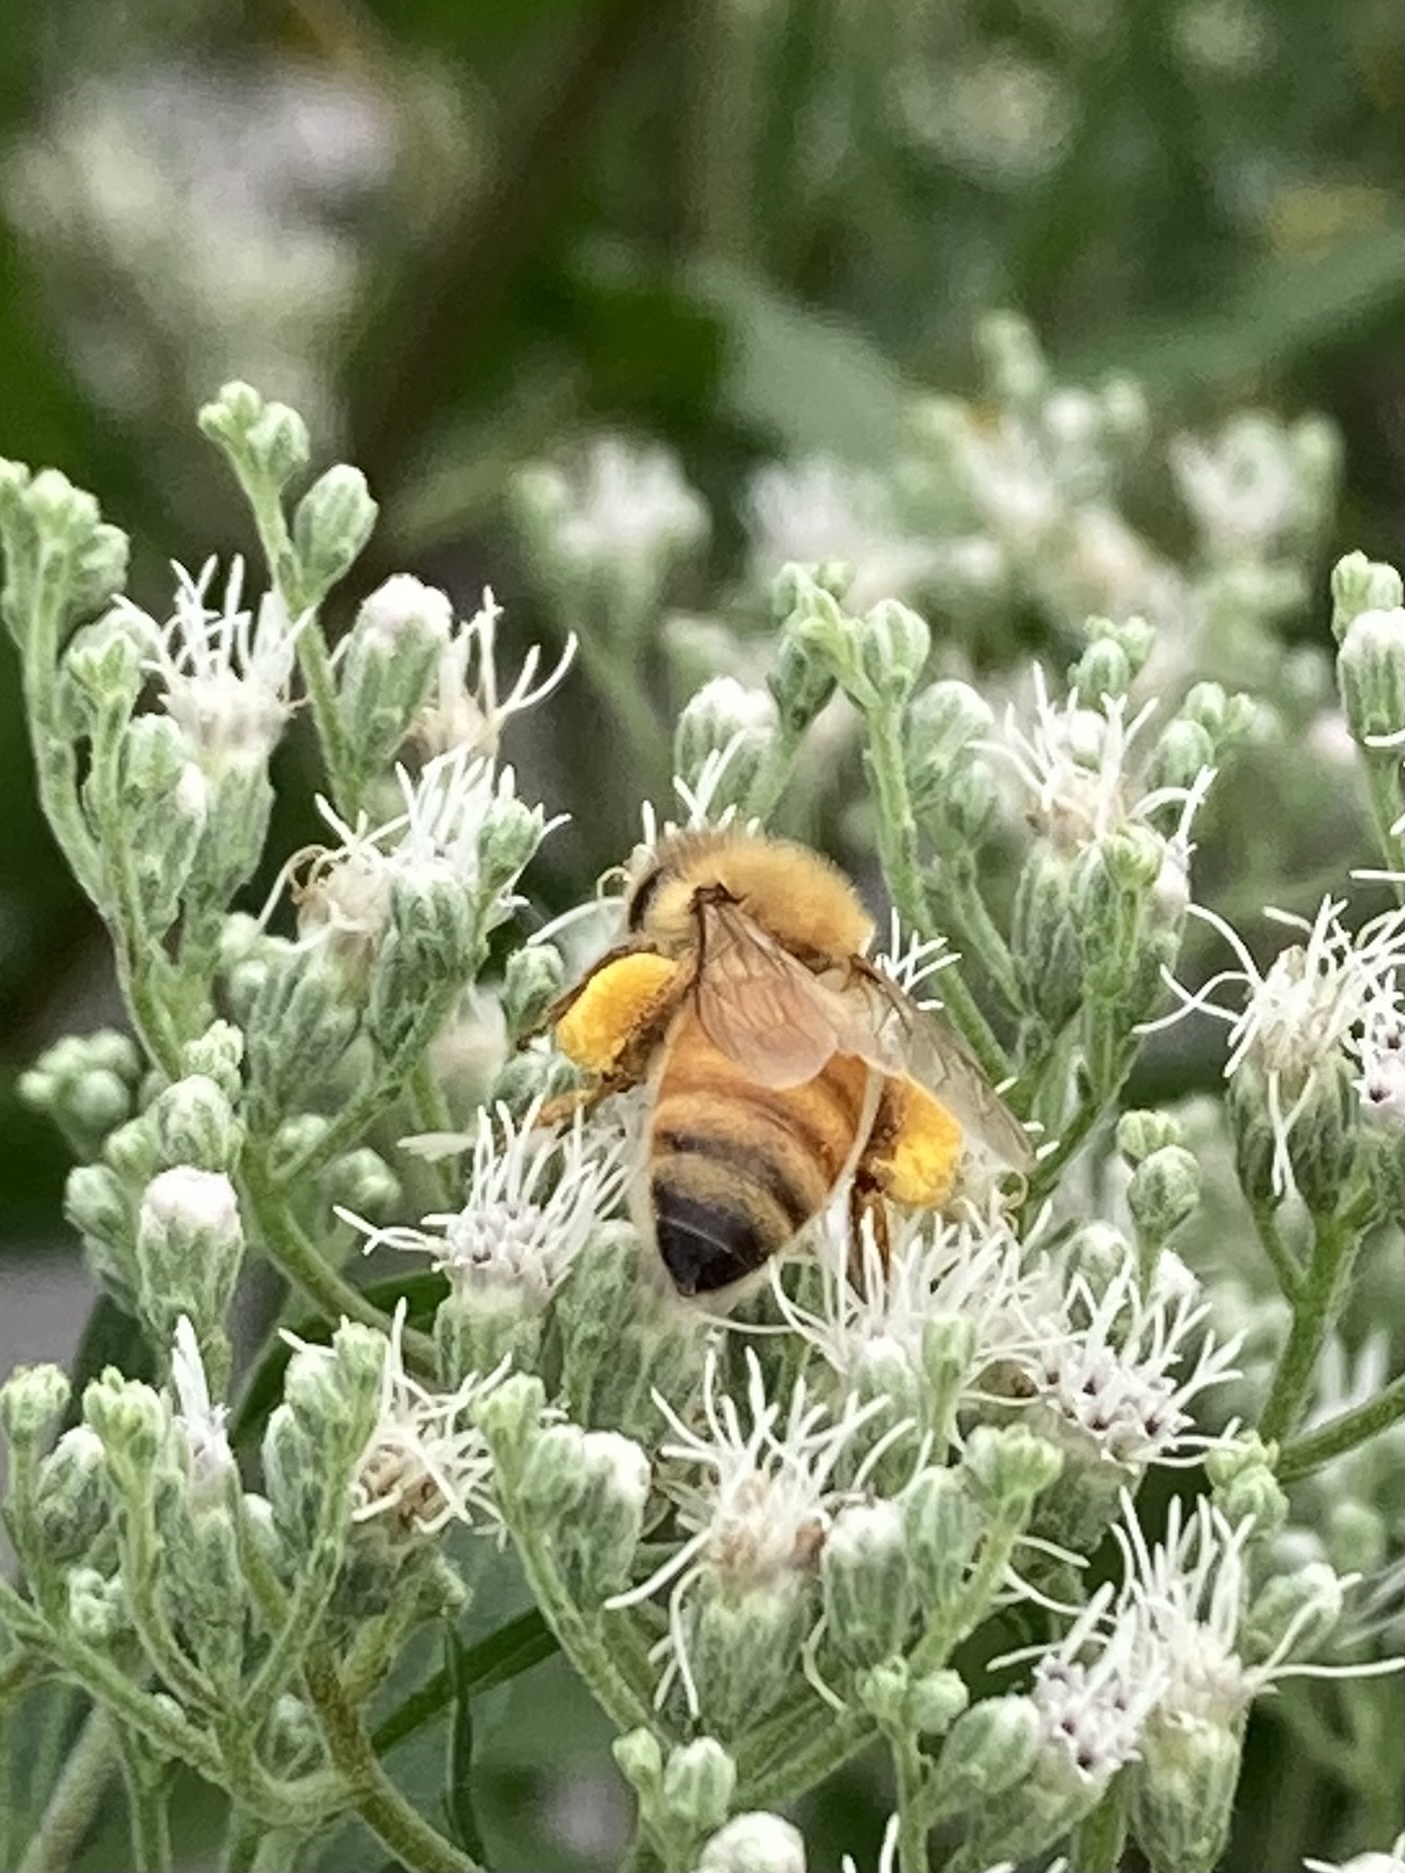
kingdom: Animalia
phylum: Arthropoda
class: Insecta
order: Hymenoptera
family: Apidae
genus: Apis
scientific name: Apis mellifera
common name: Honey bee
